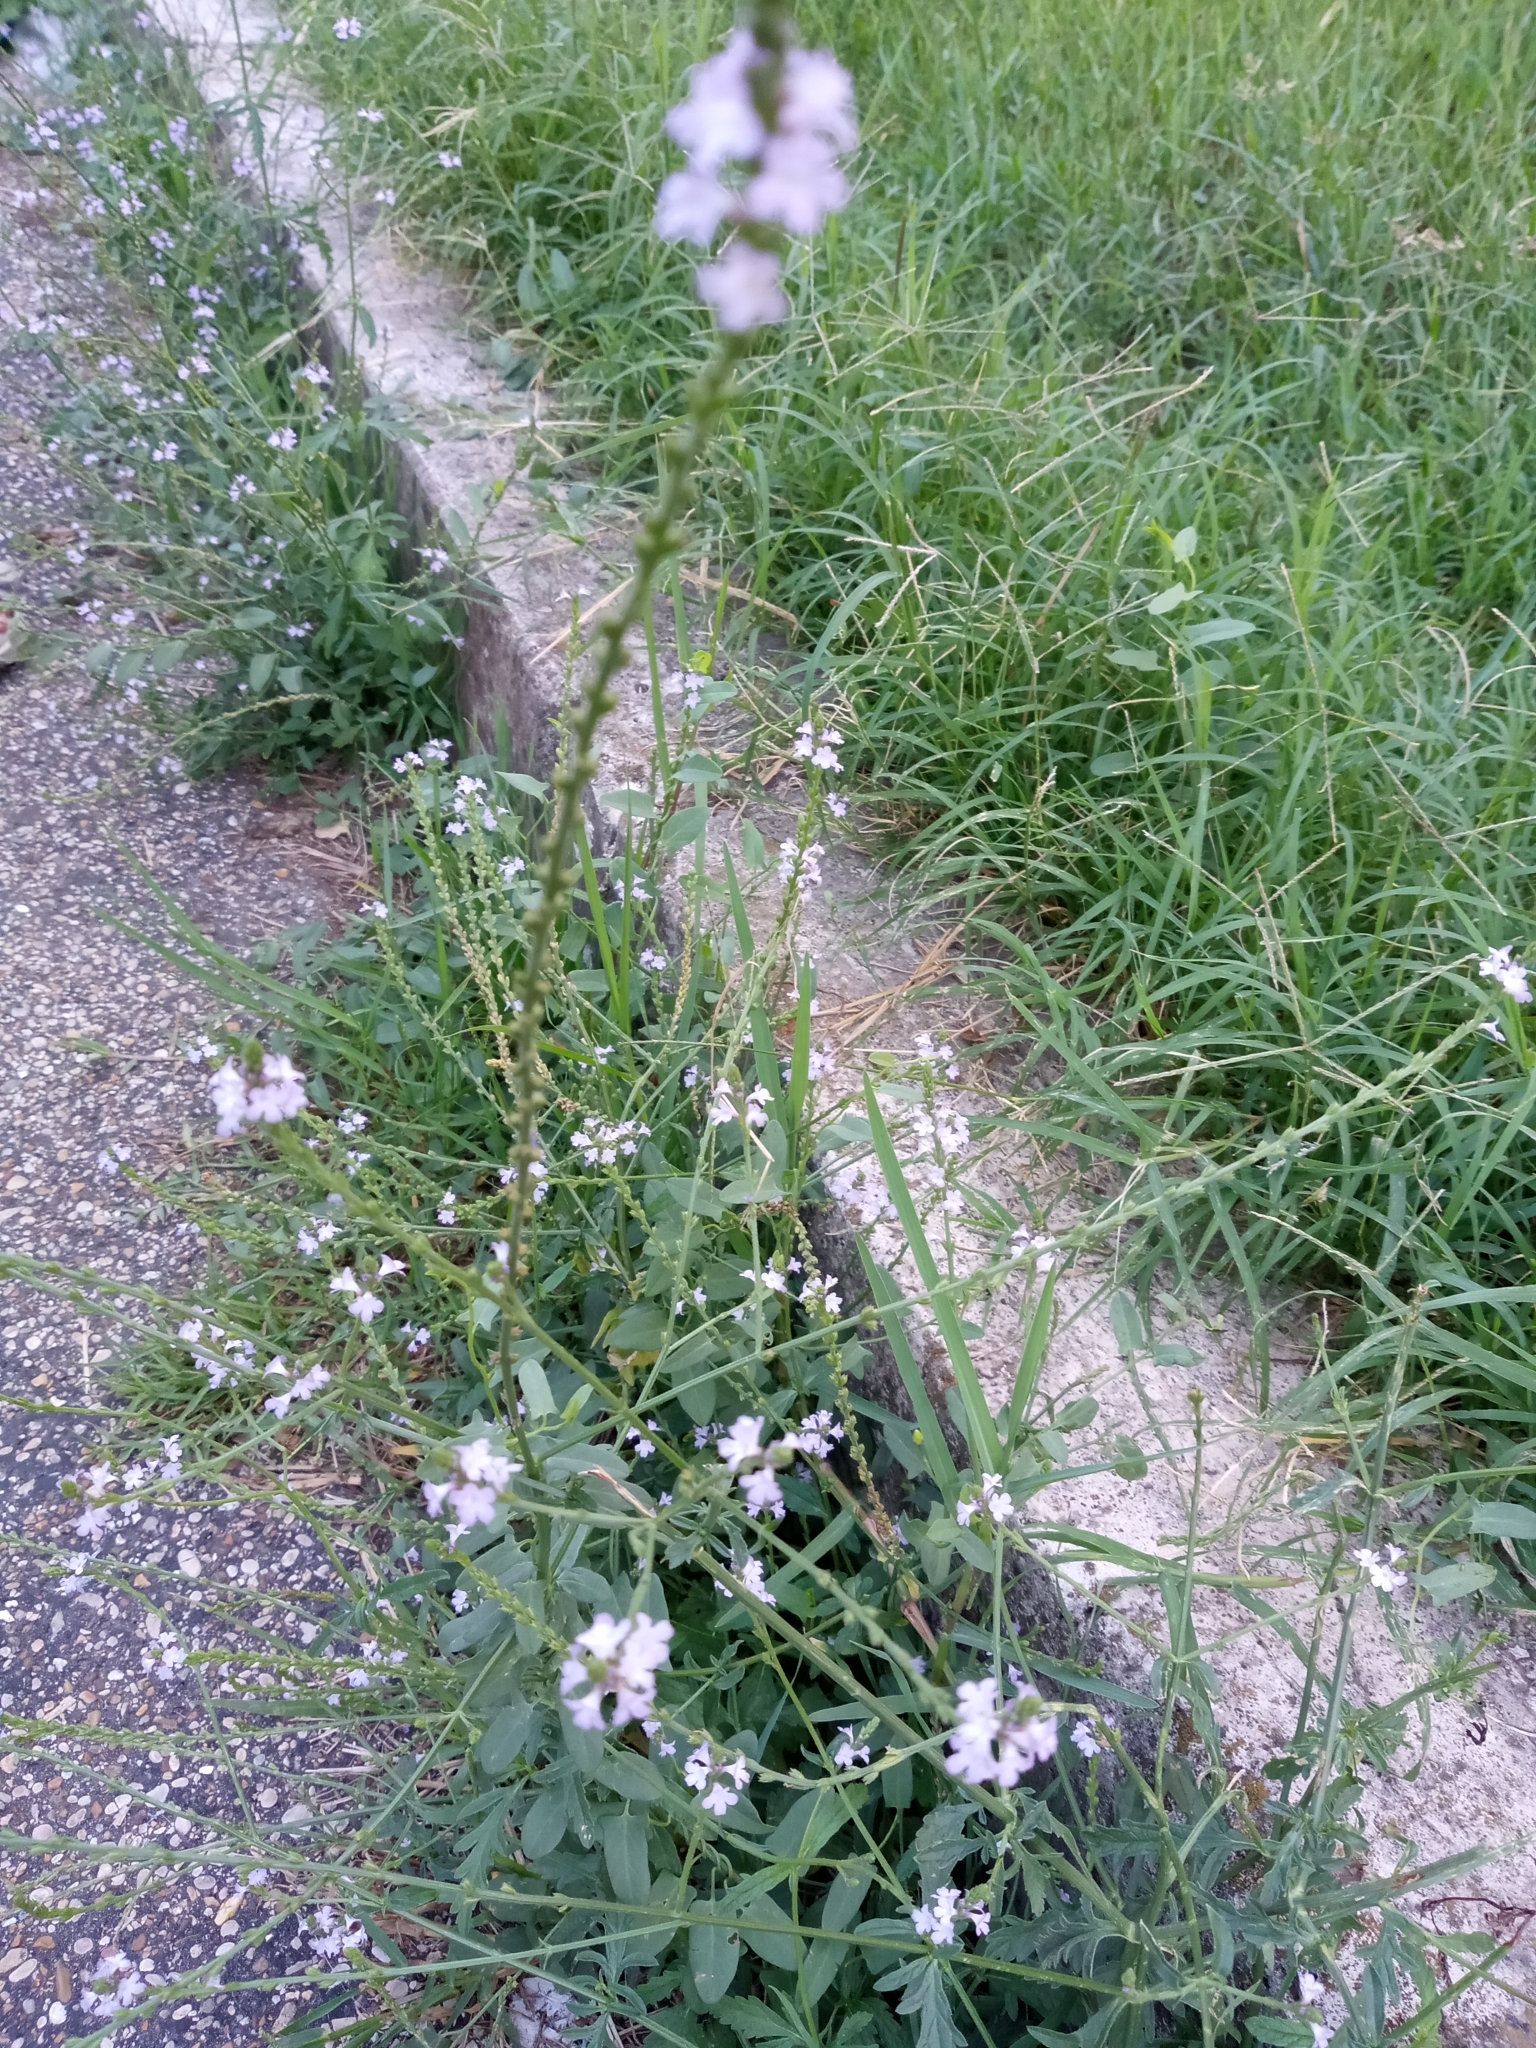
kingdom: Plantae
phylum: Tracheophyta
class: Magnoliopsida
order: Lamiales
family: Verbenaceae
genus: Verbena
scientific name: Verbena officinalis
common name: Vervain
